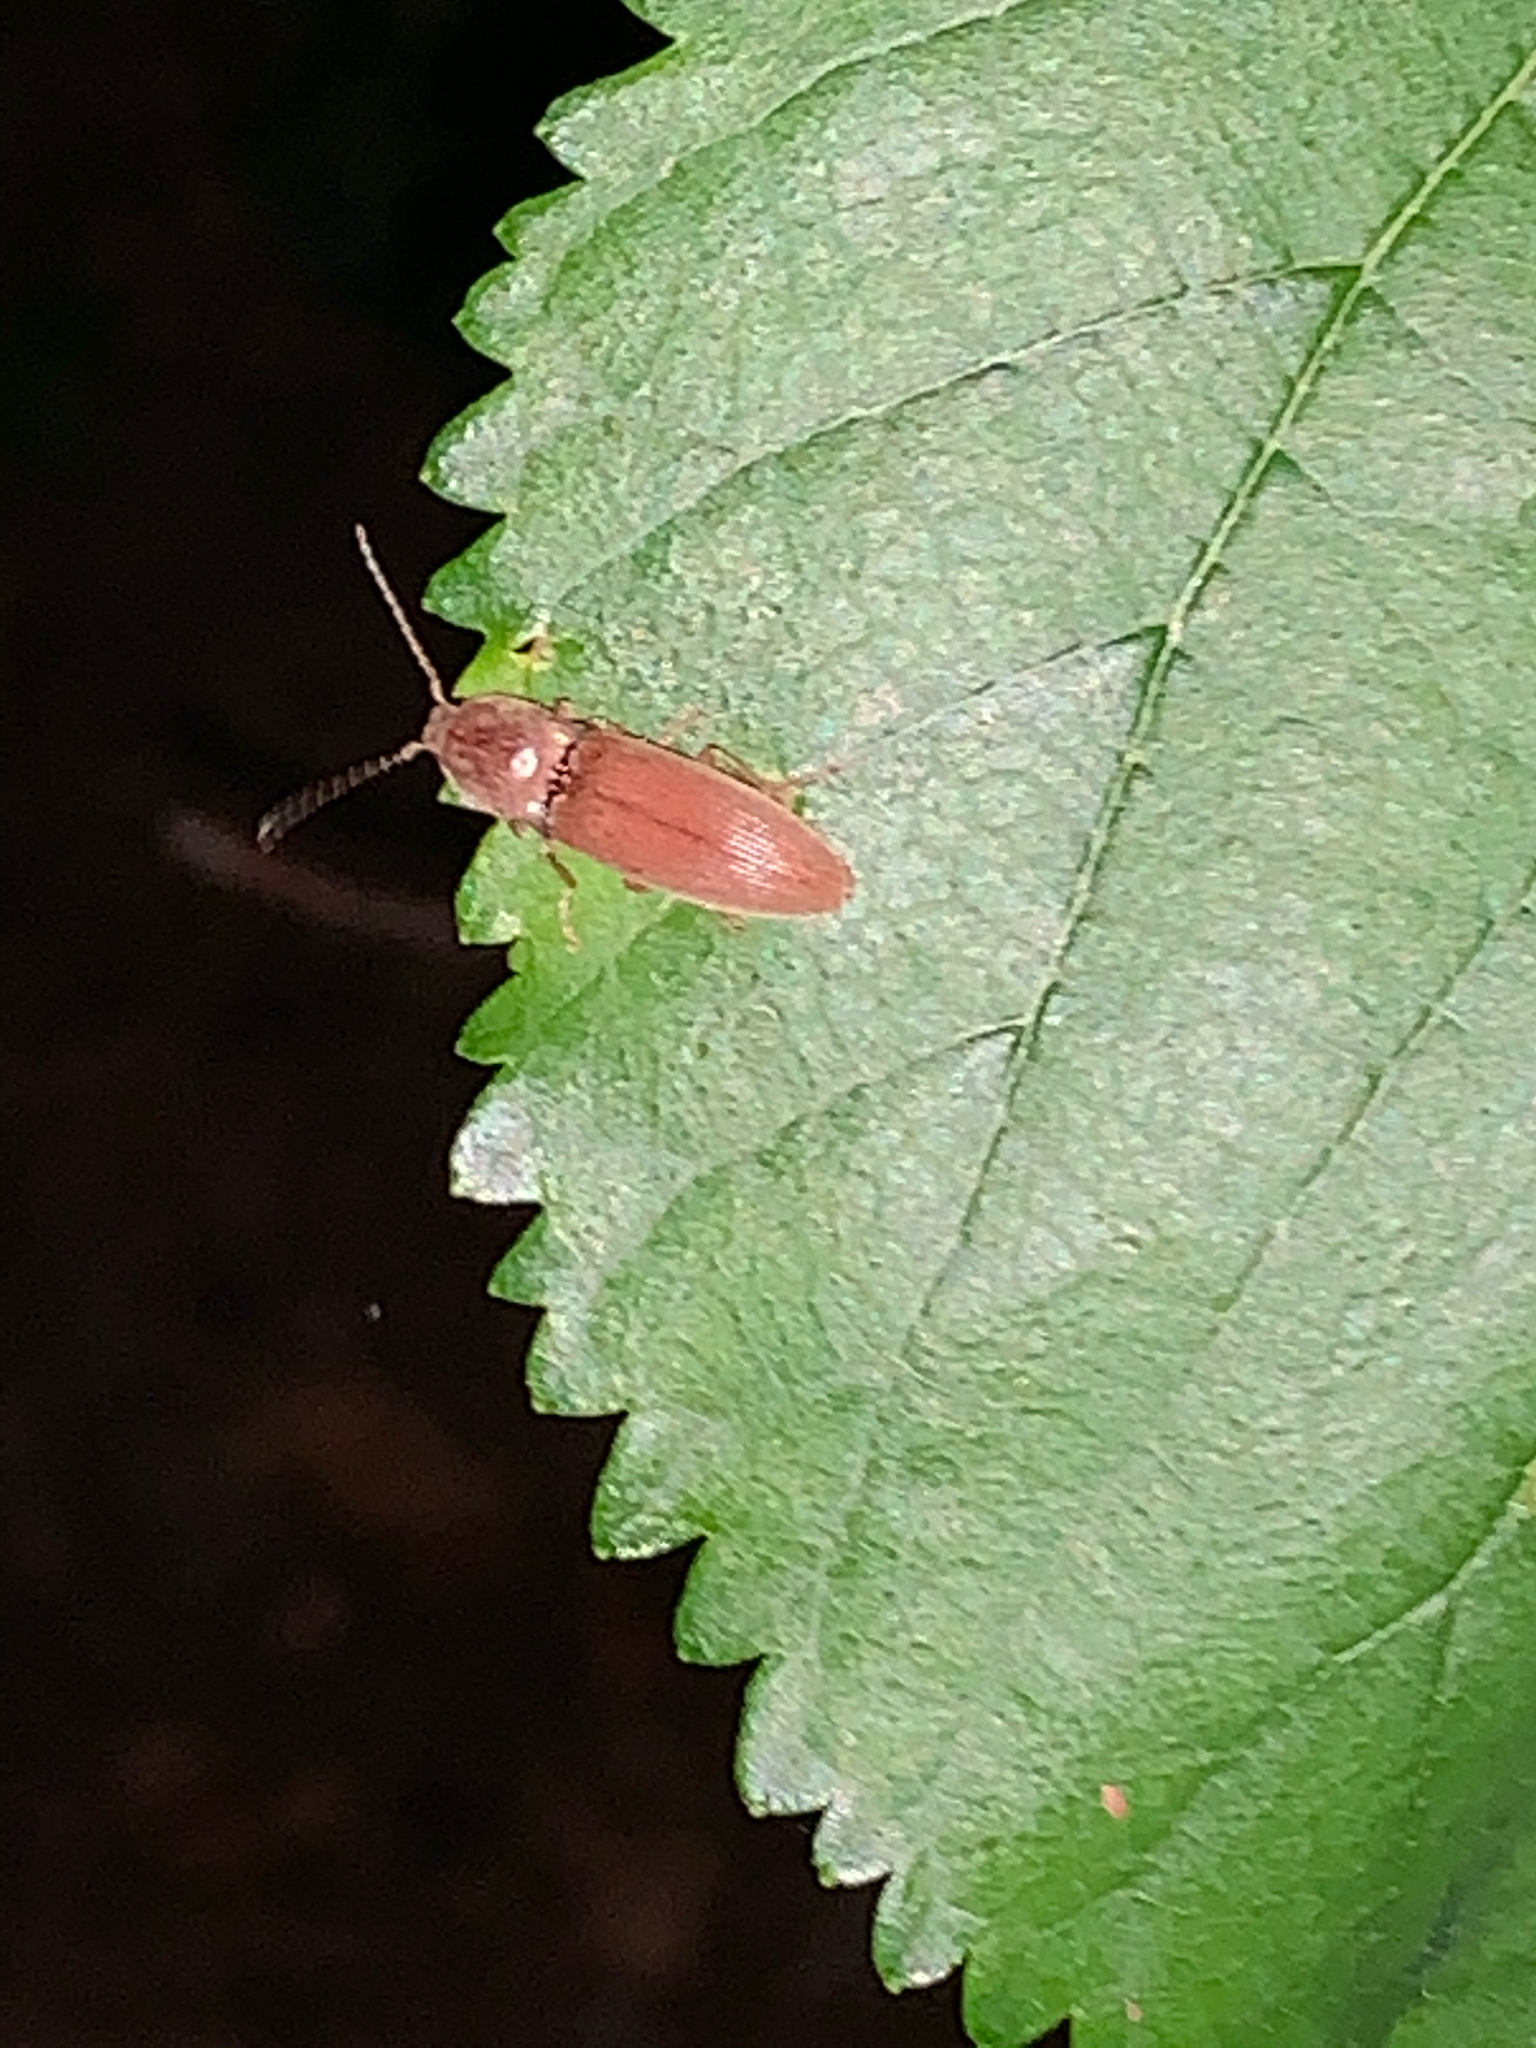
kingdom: Animalia
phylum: Arthropoda
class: Insecta
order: Coleoptera
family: Elateridae
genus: Monocrepidius
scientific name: Monocrepidius lividus
